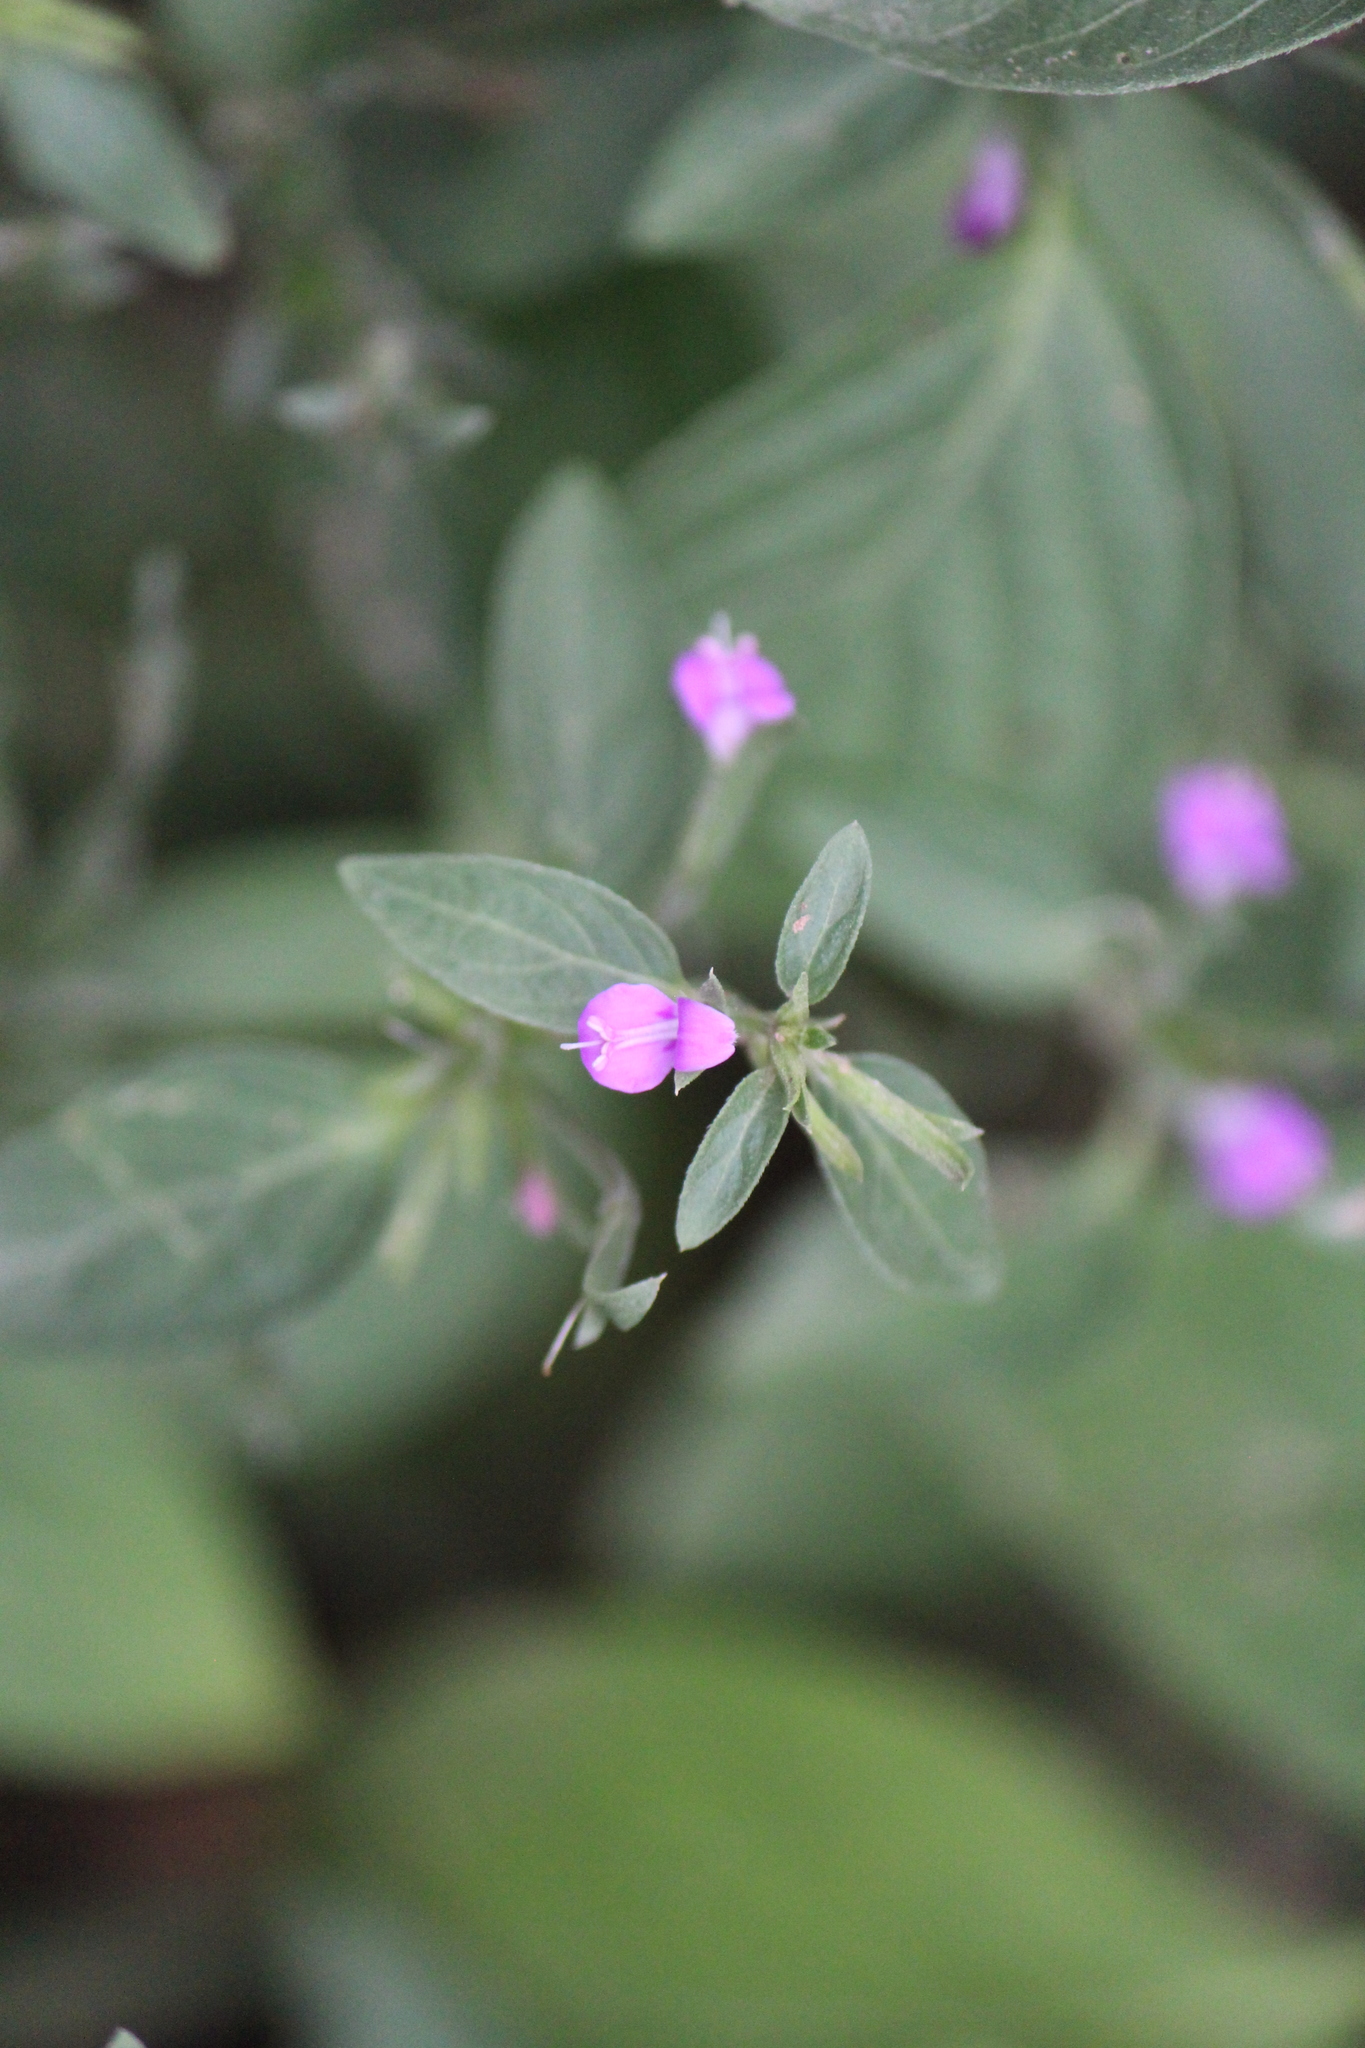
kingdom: Plantae
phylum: Tracheophyta
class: Magnoliopsida
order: Lamiales
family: Acanthaceae
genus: Dicliptera
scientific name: Dicliptera peduncularis
